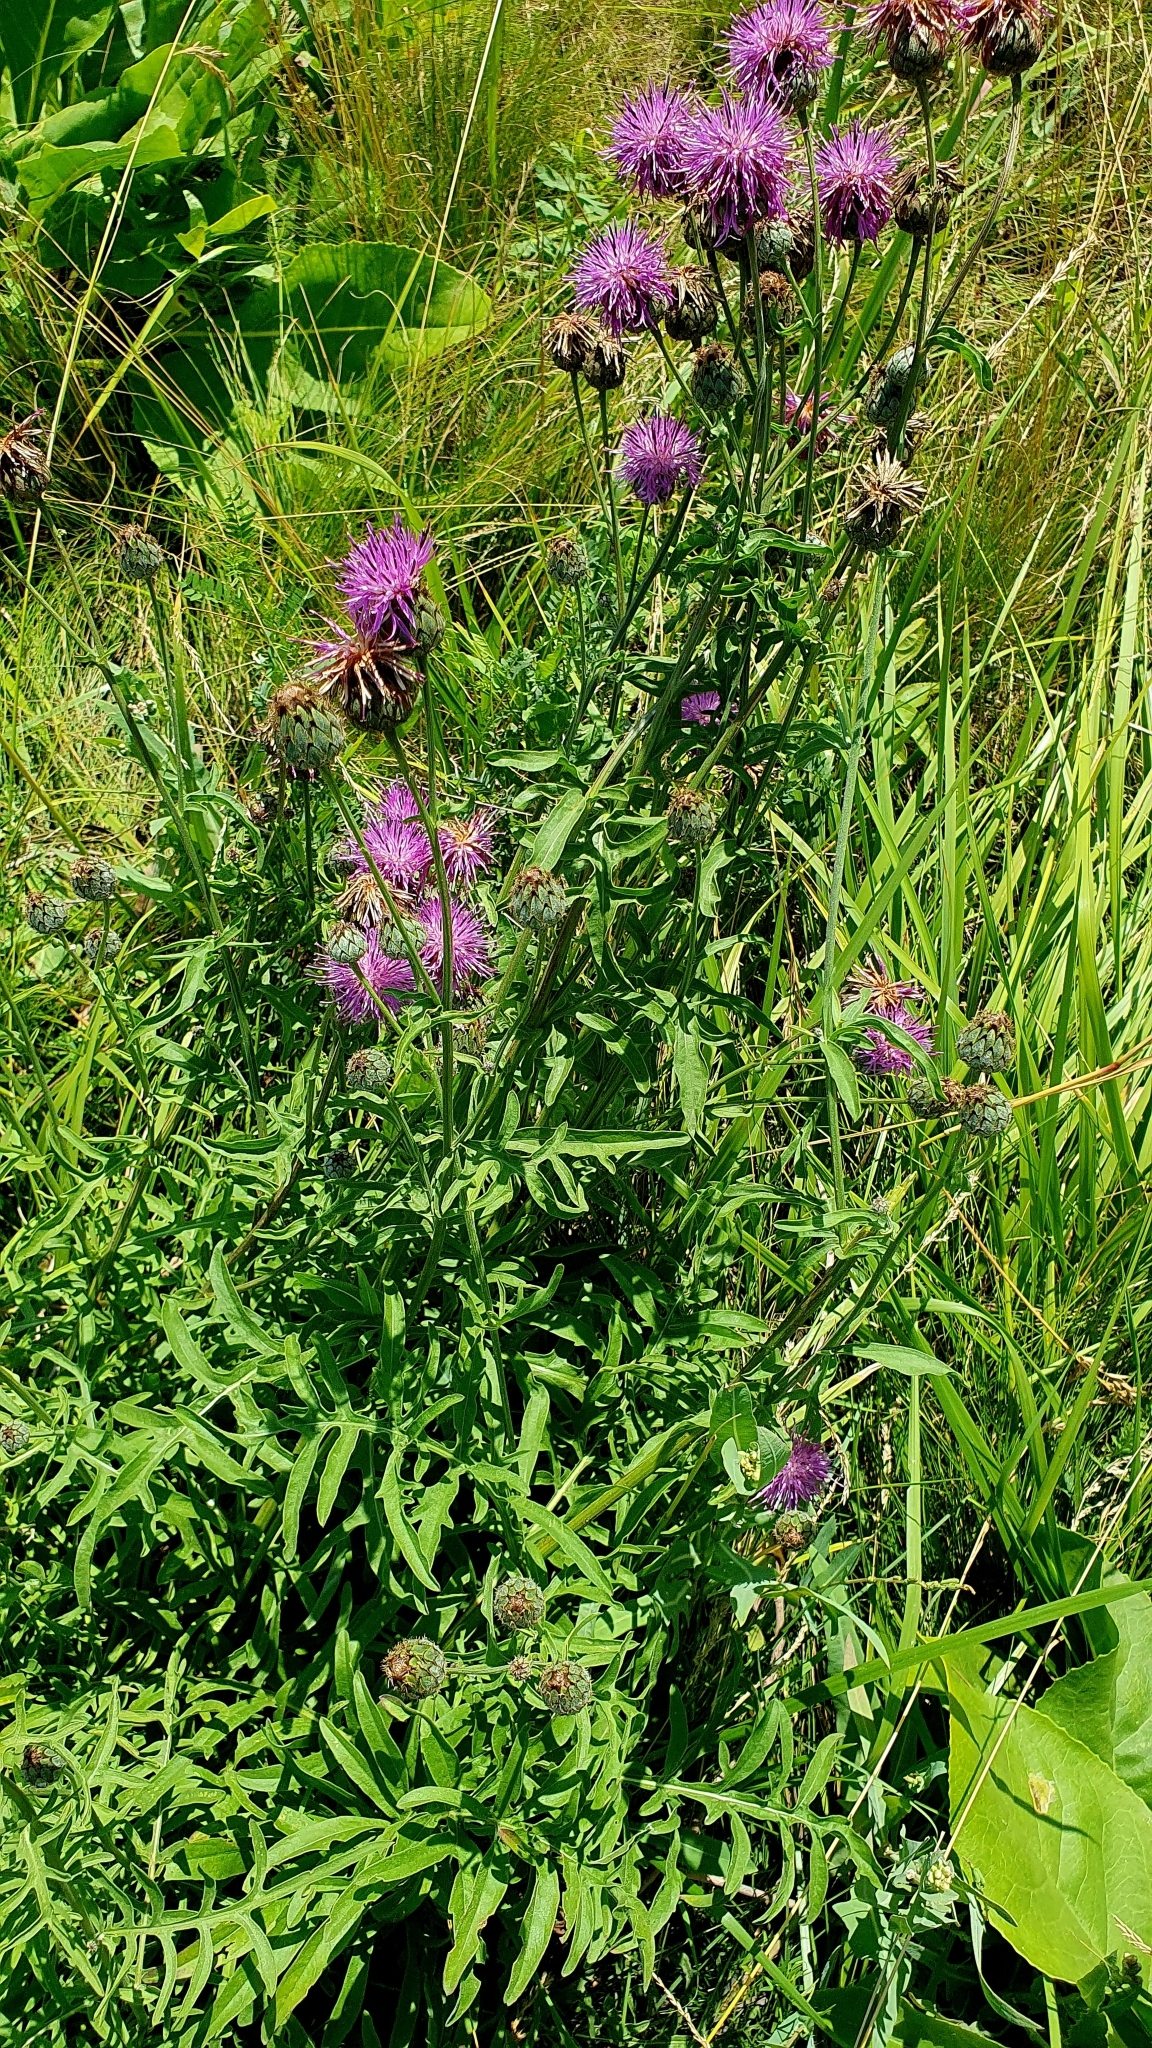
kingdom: Plantae
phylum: Tracheophyta
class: Magnoliopsida
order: Asterales
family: Asteraceae
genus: Centaurea
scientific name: Centaurea scabiosa
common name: Greater knapweed
